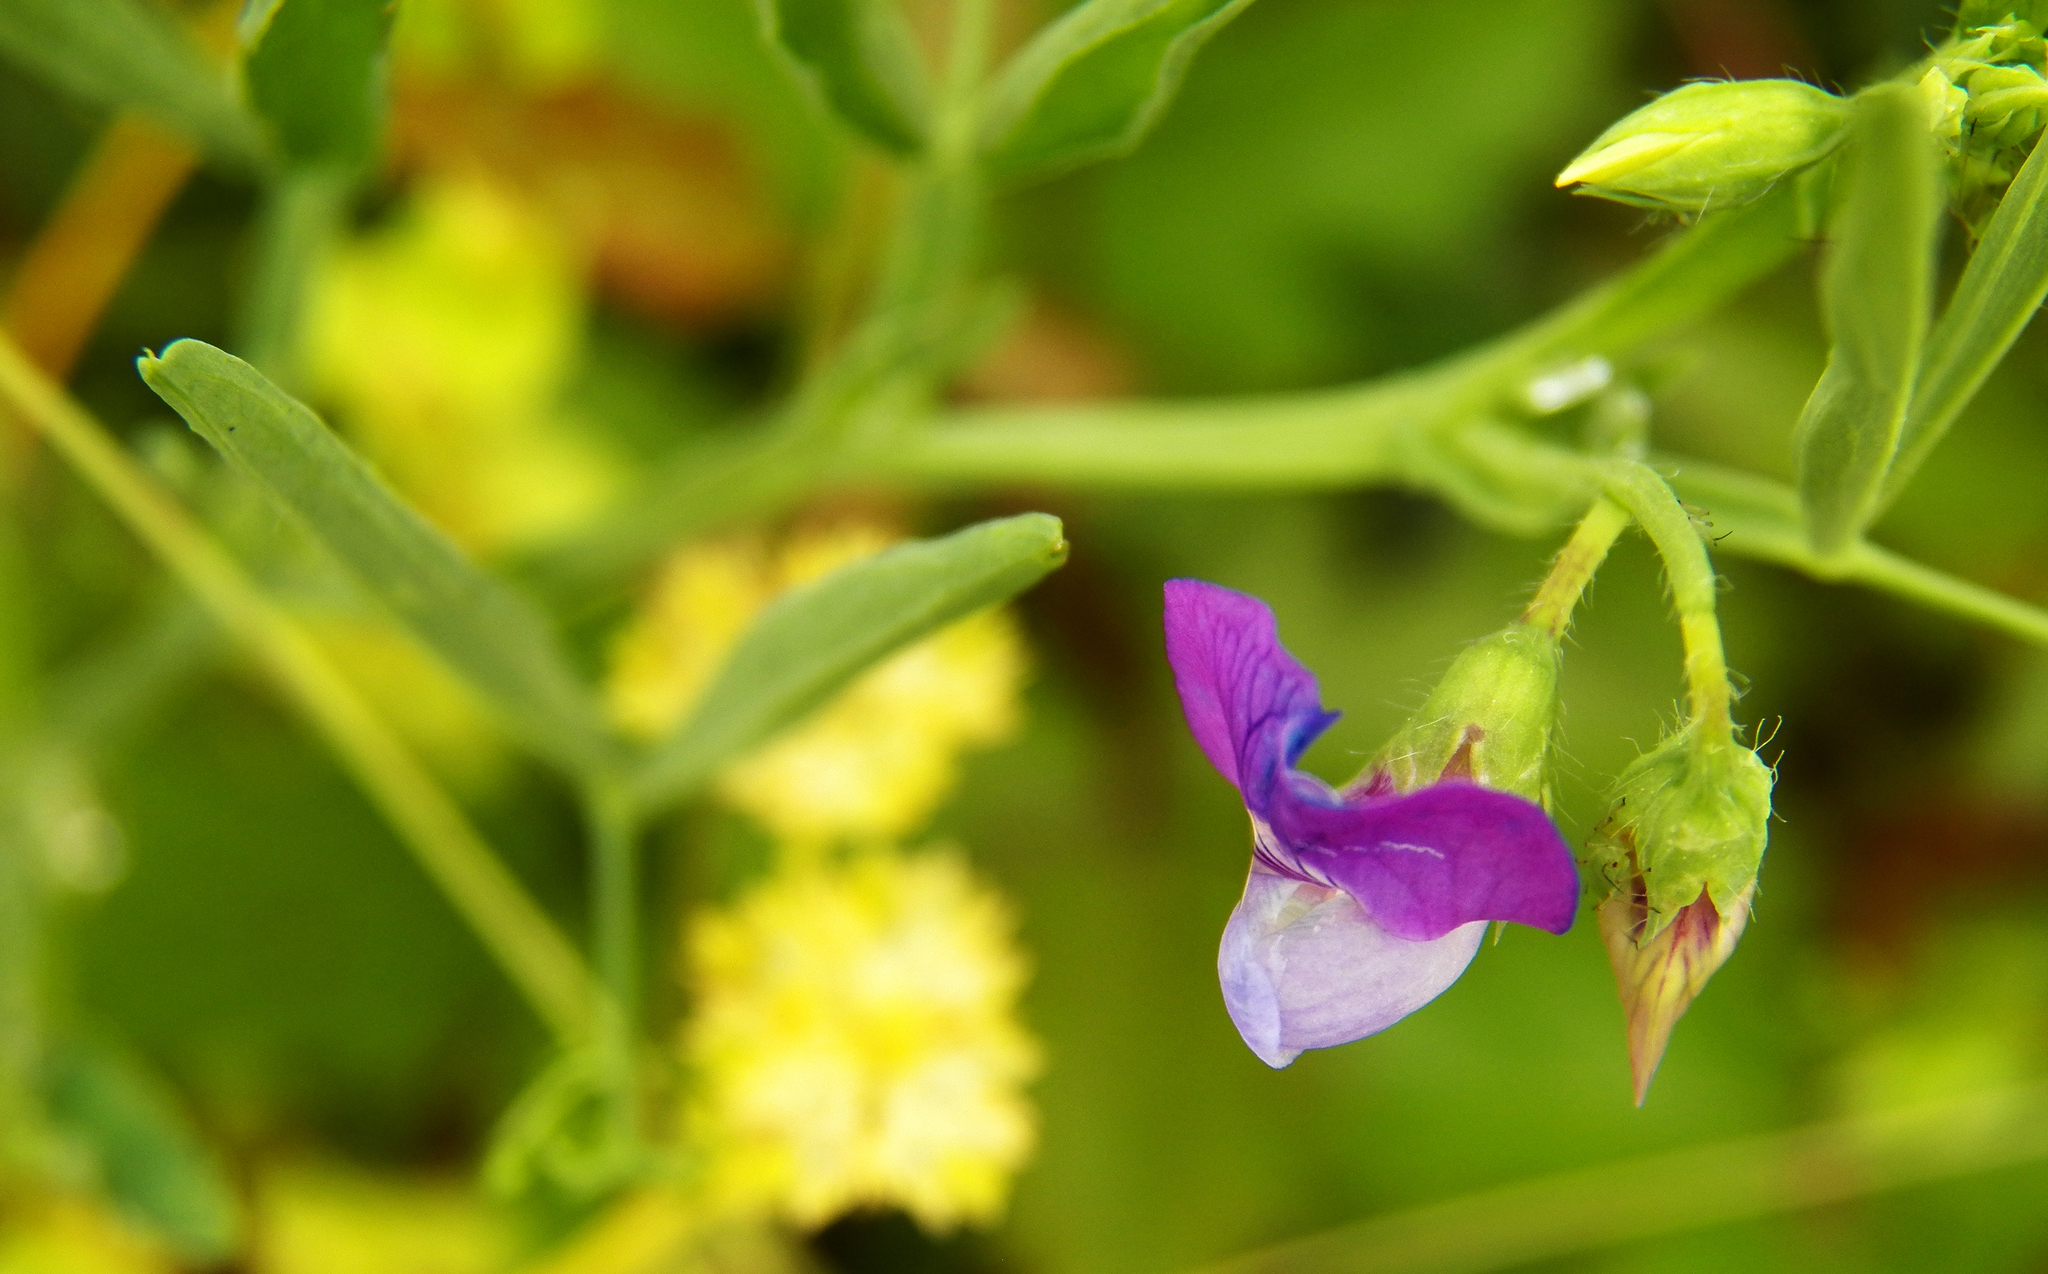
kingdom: Plantae
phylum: Tracheophyta
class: Magnoliopsida
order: Fabales
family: Fabaceae
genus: Lathyrus
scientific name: Lathyrus hirsutus
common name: Hairy vetchling
